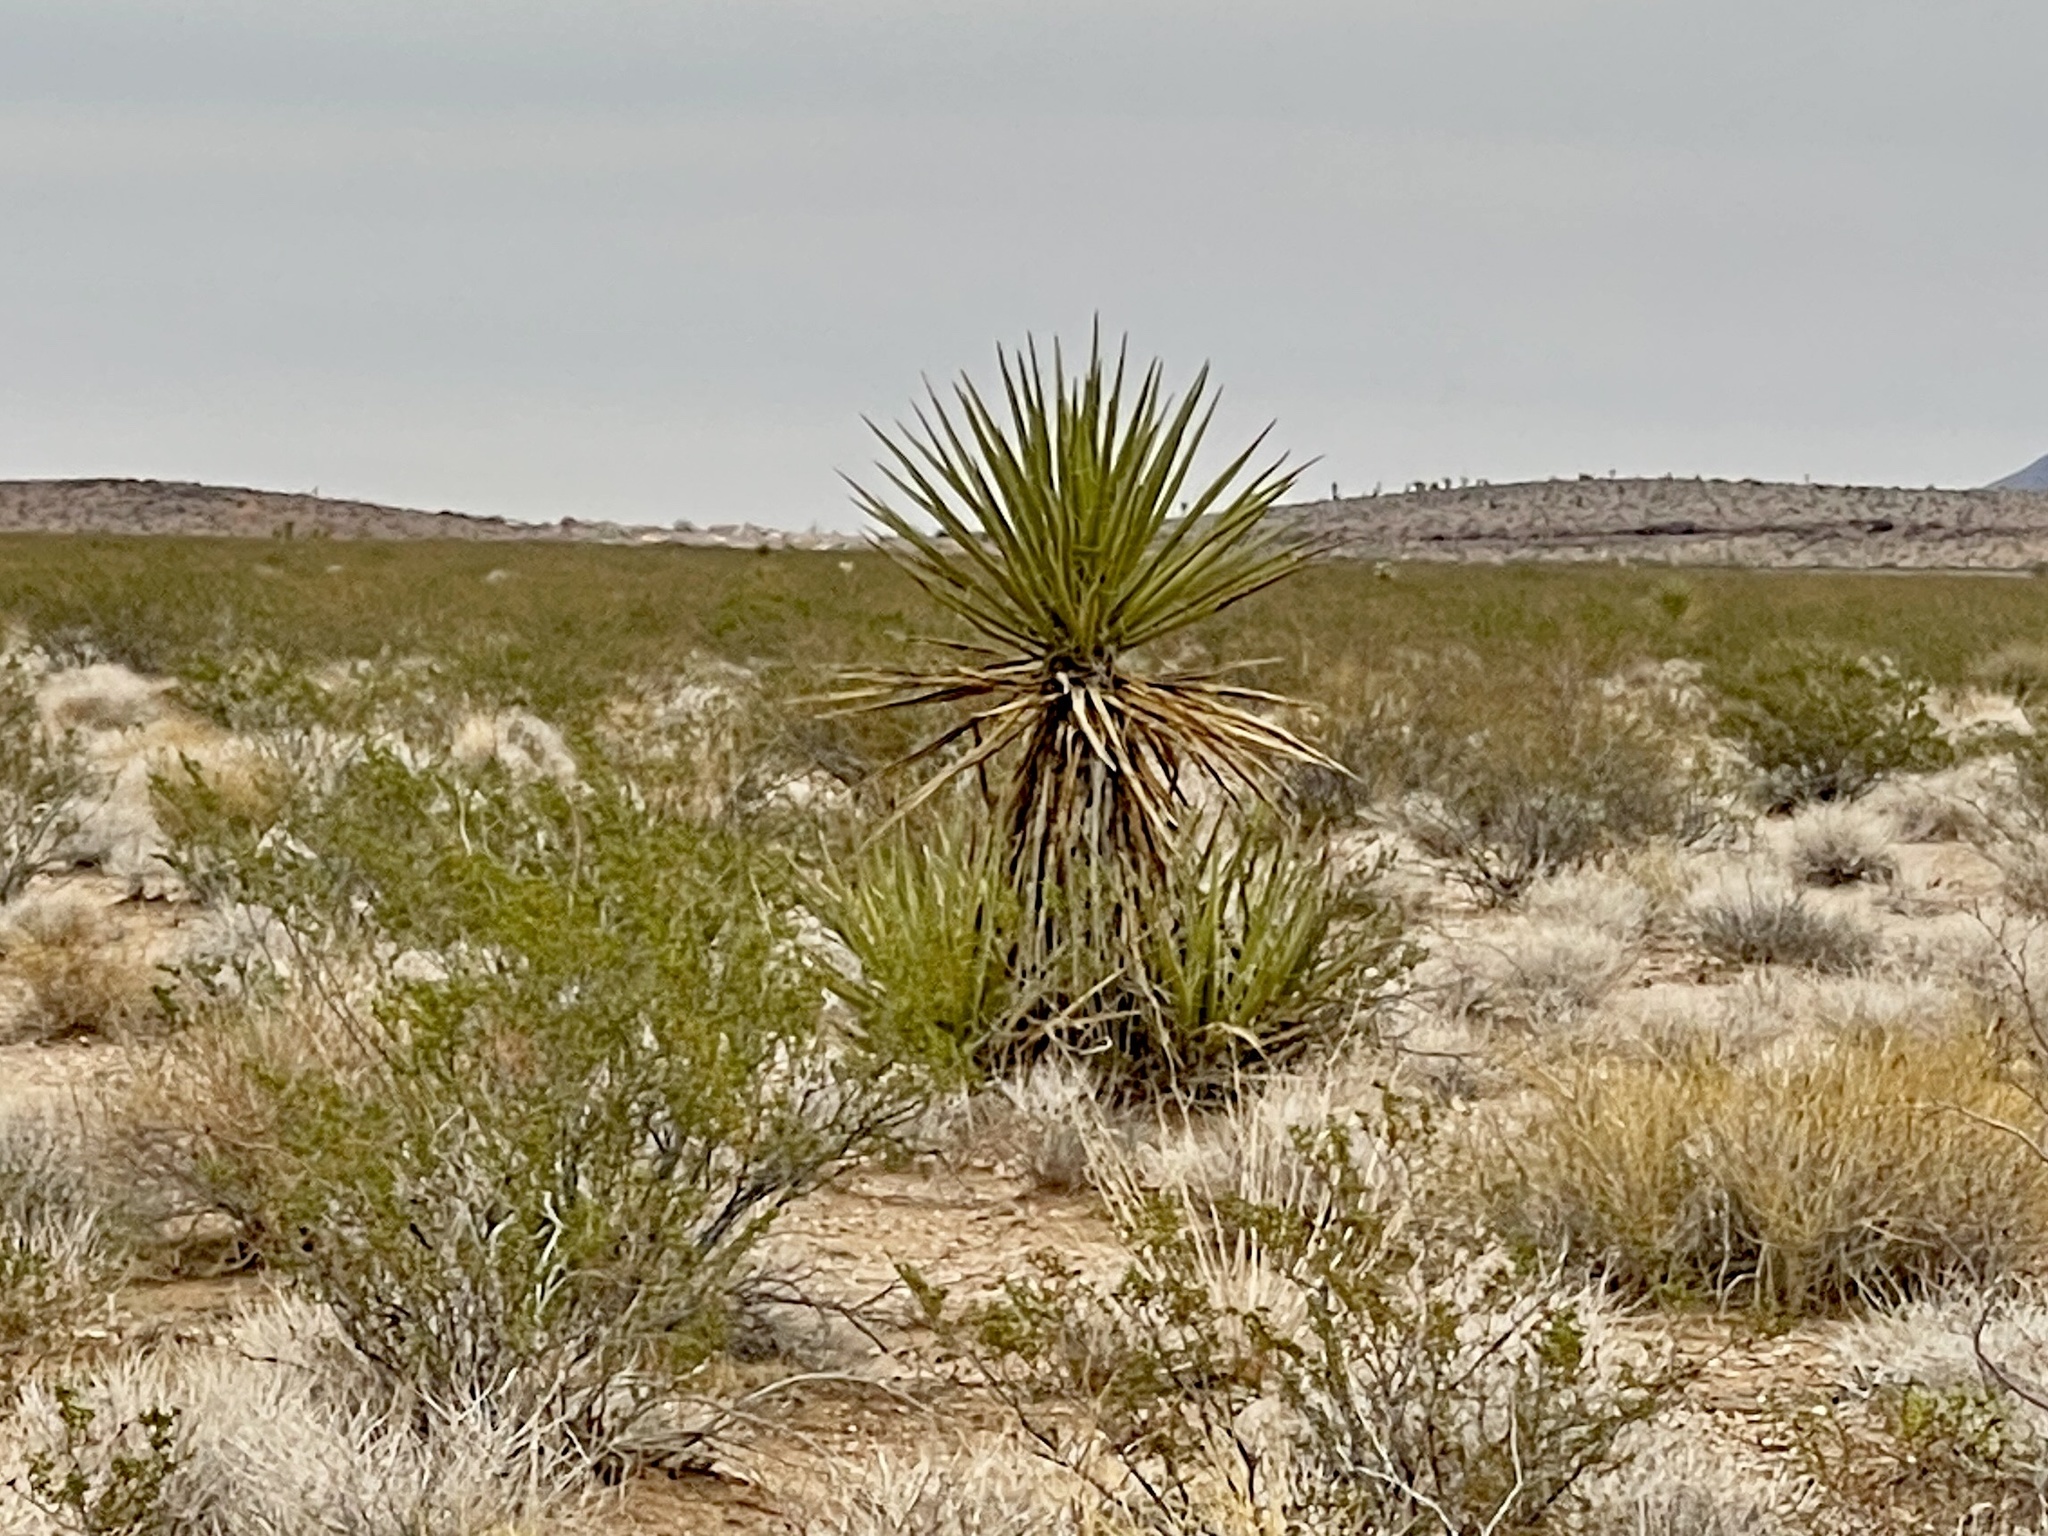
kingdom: Plantae
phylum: Tracheophyta
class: Liliopsida
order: Asparagales
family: Asparagaceae
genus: Yucca
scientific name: Yucca schidigera
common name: Mojave yucca
